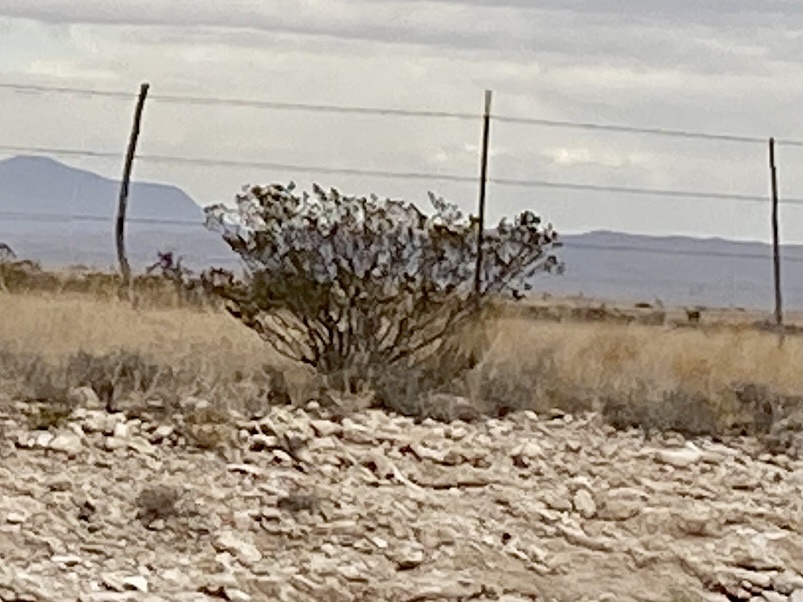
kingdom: Plantae
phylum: Tracheophyta
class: Magnoliopsida
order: Zygophyllales
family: Zygophyllaceae
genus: Larrea
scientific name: Larrea tridentata
